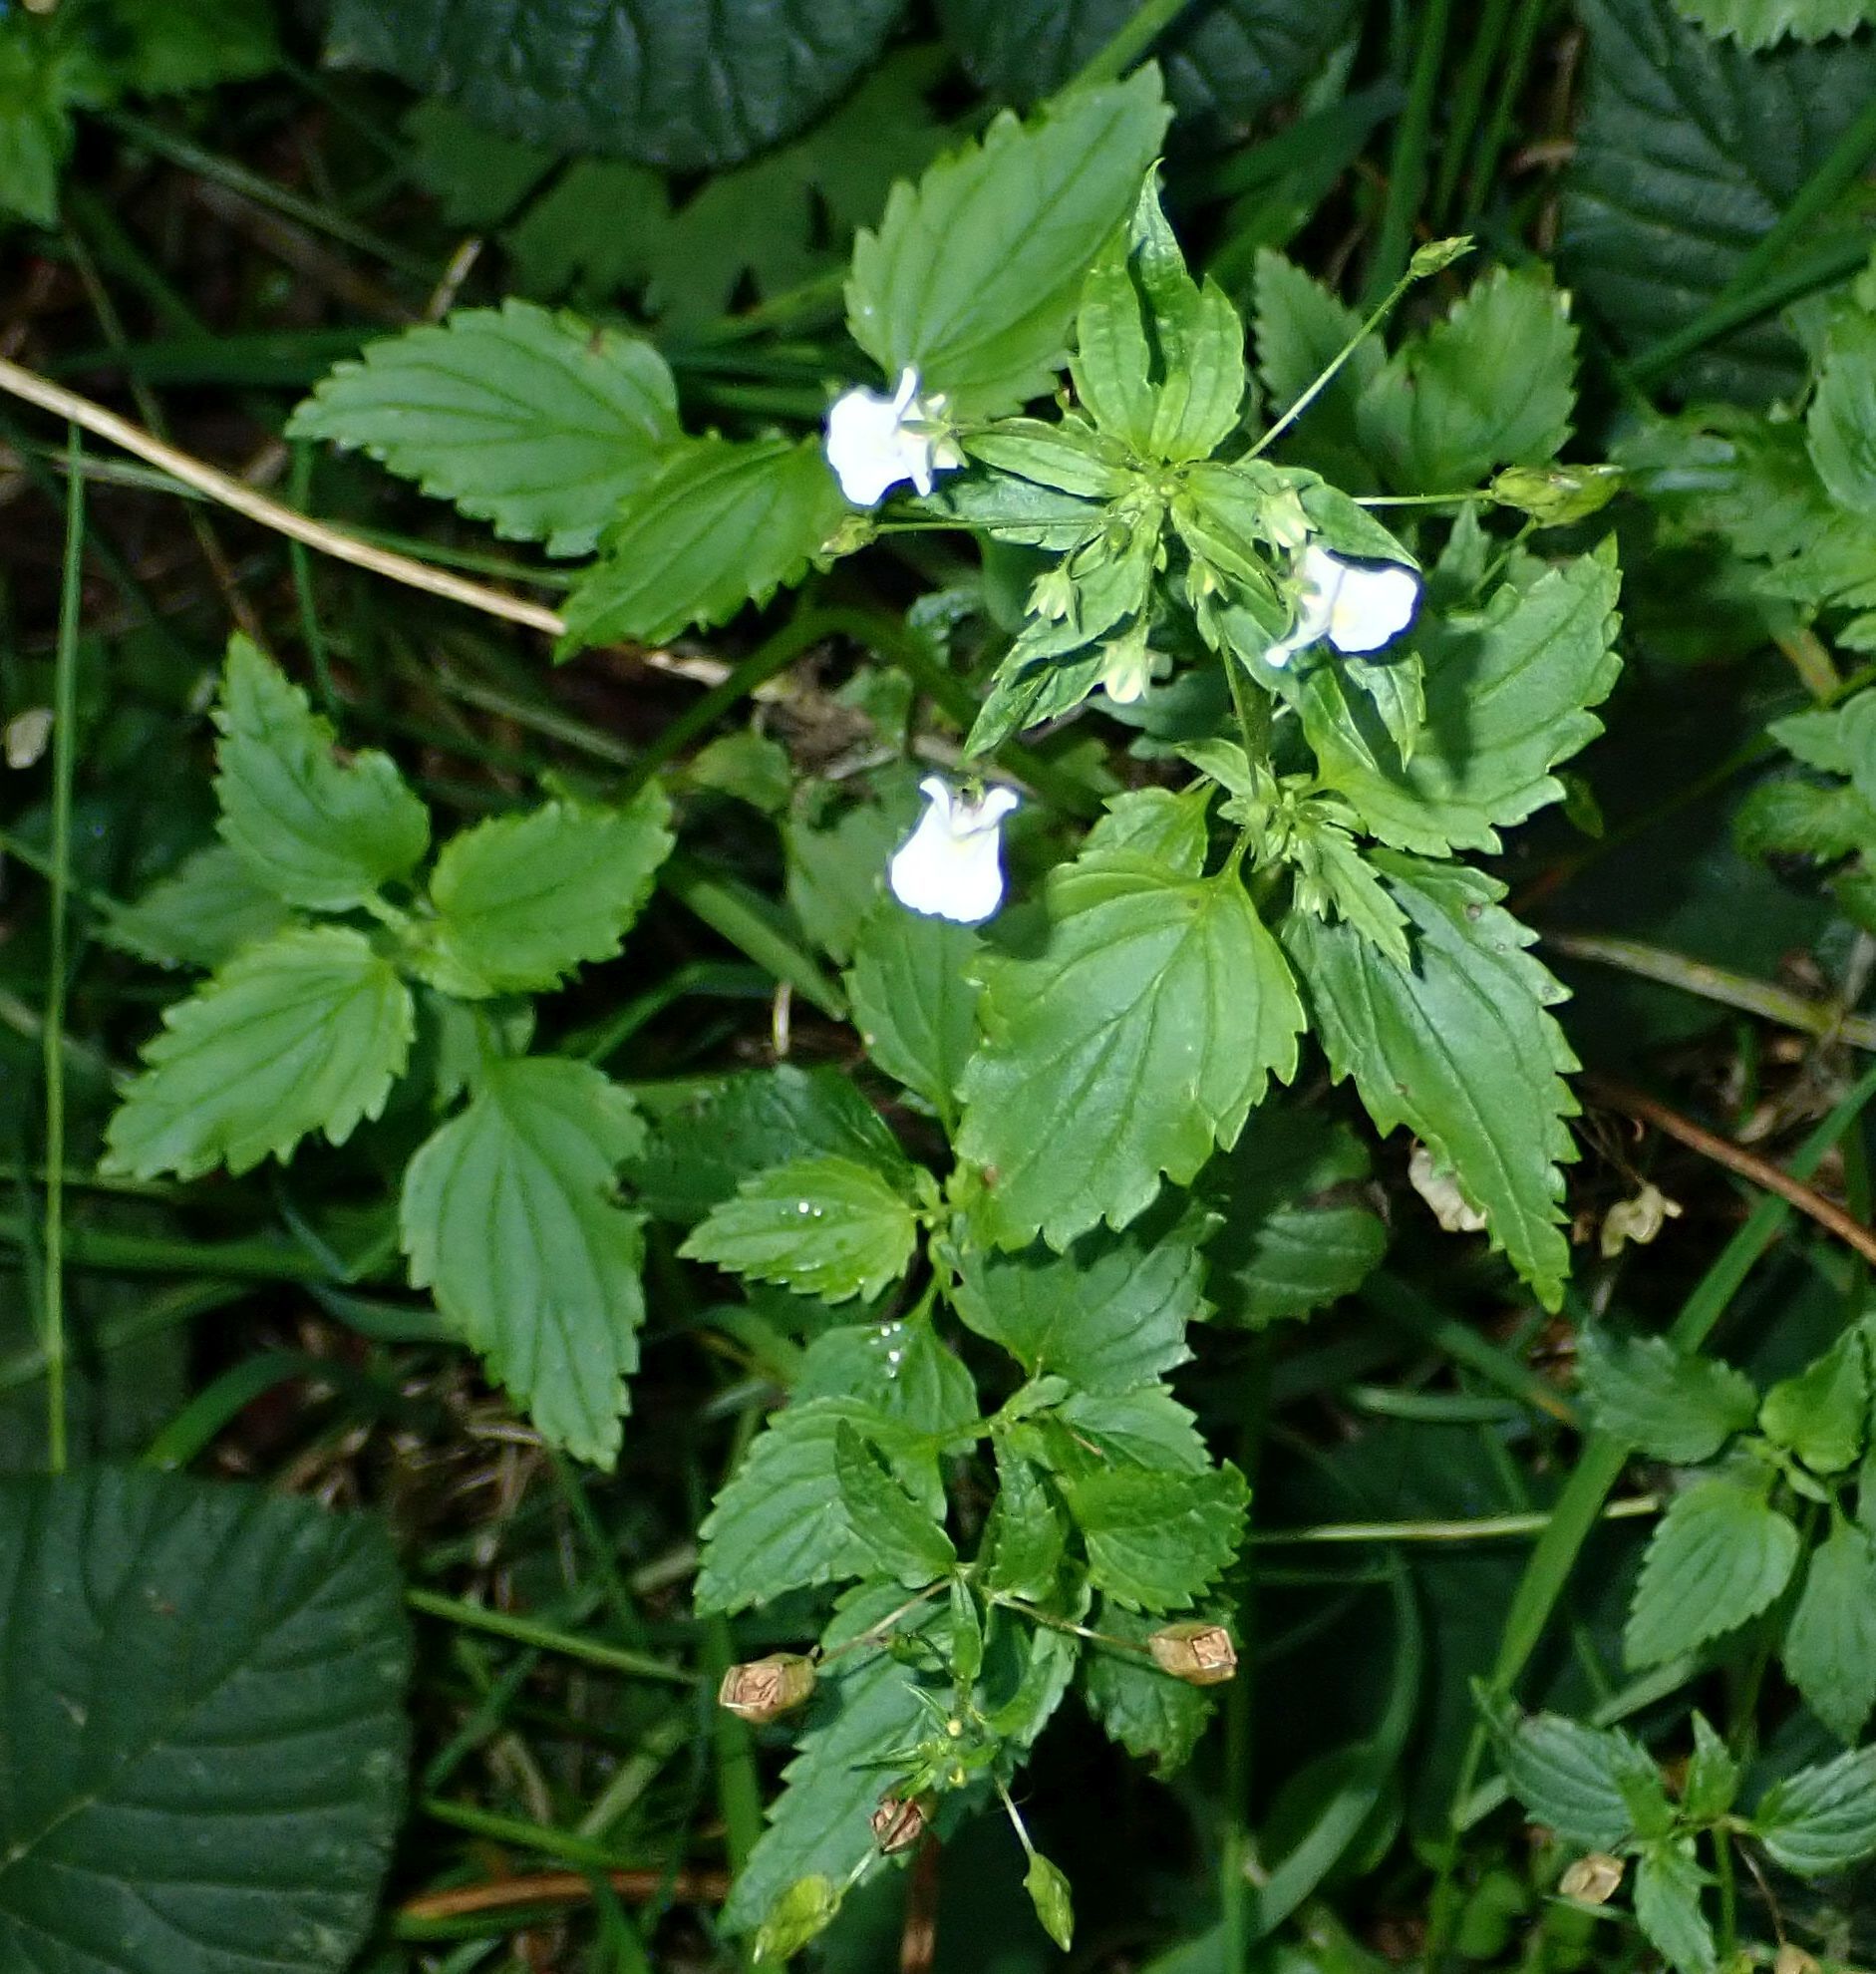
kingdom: Plantae
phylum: Tracheophyta
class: Magnoliopsida
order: Lamiales
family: Scrophulariaceae
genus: Nemesia
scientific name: Nemesia floribunda
